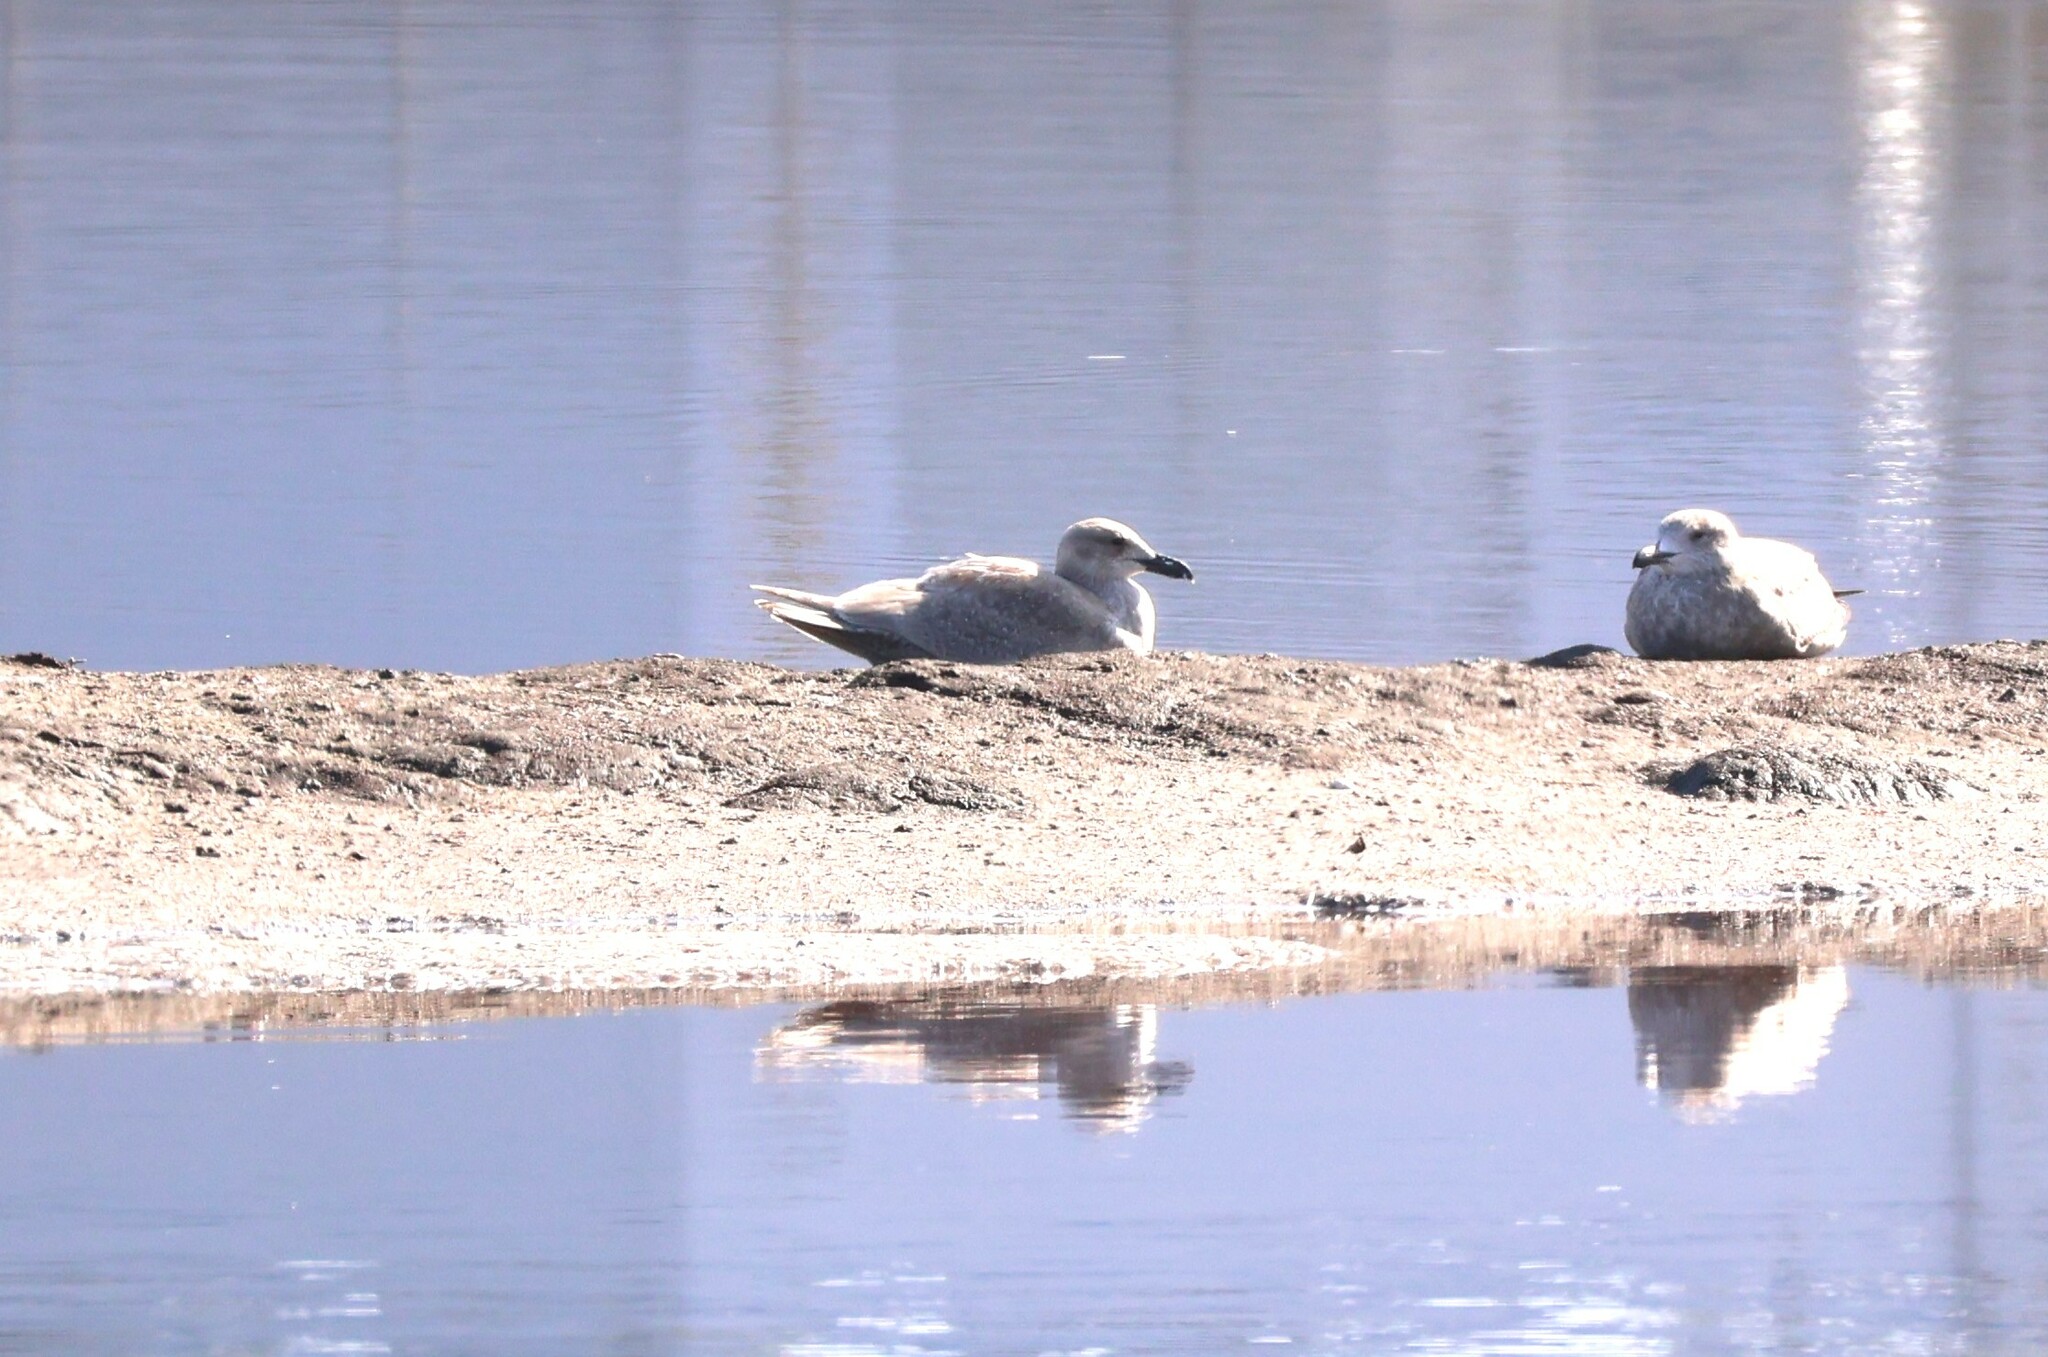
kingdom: Animalia
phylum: Chordata
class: Aves
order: Charadriiformes
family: Laridae
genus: Larus
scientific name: Larus glaucescens
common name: Glaucous-winged gull
